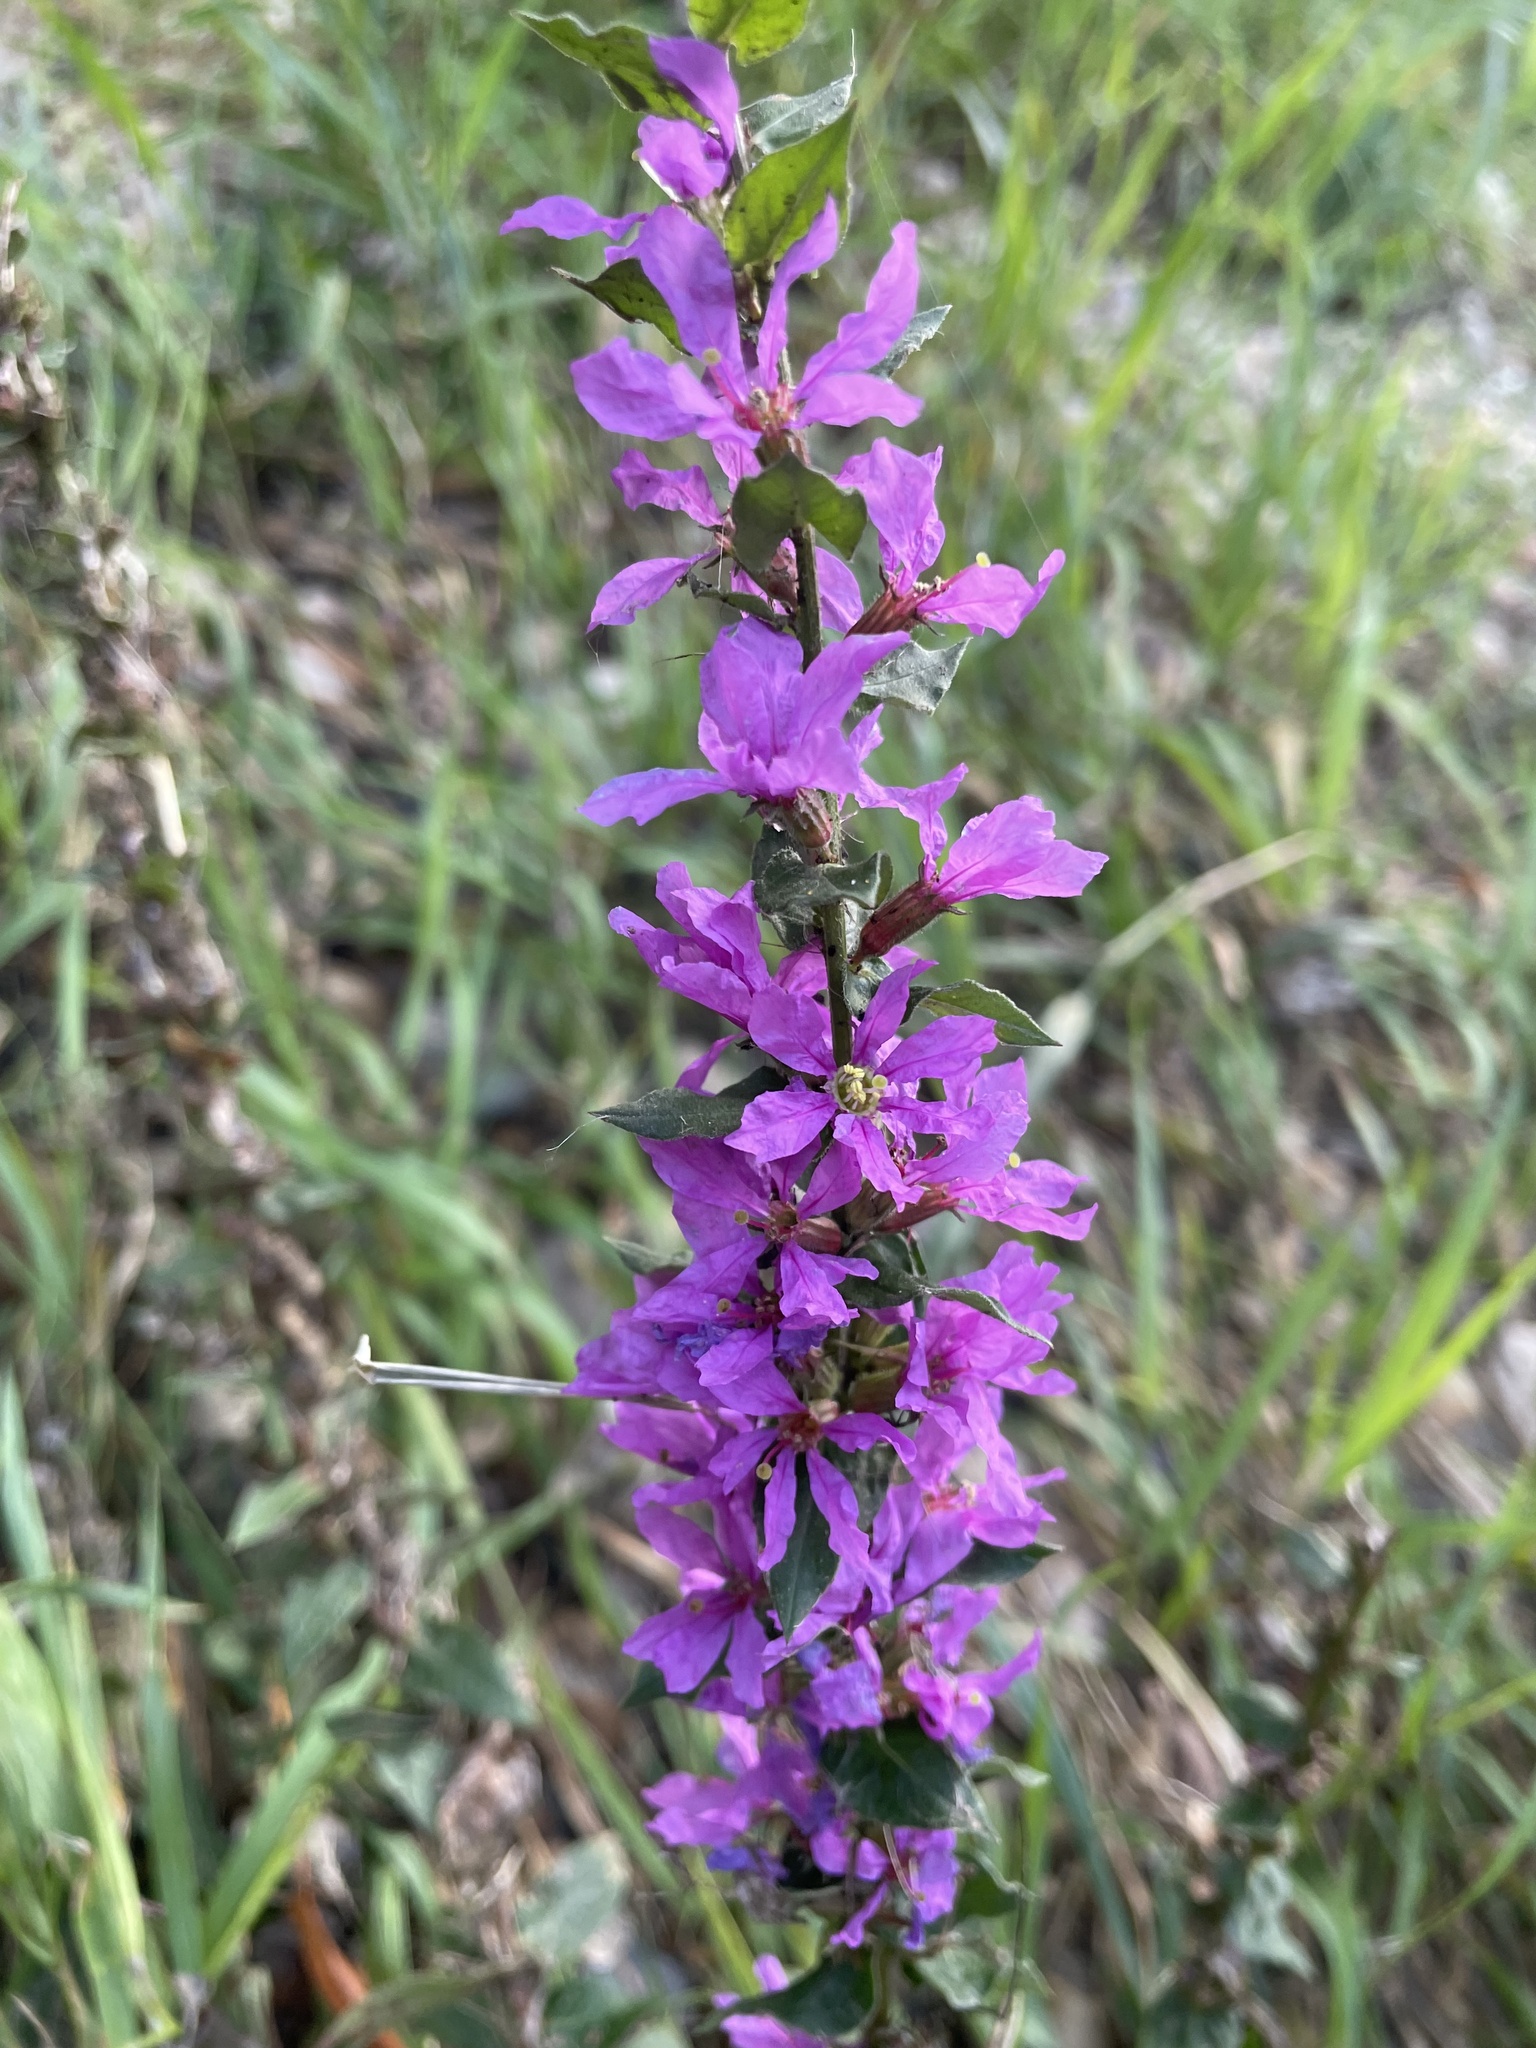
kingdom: Plantae
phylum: Tracheophyta
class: Magnoliopsida
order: Myrtales
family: Lythraceae
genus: Lythrum
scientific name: Lythrum salicaria
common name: Purple loosestrife
